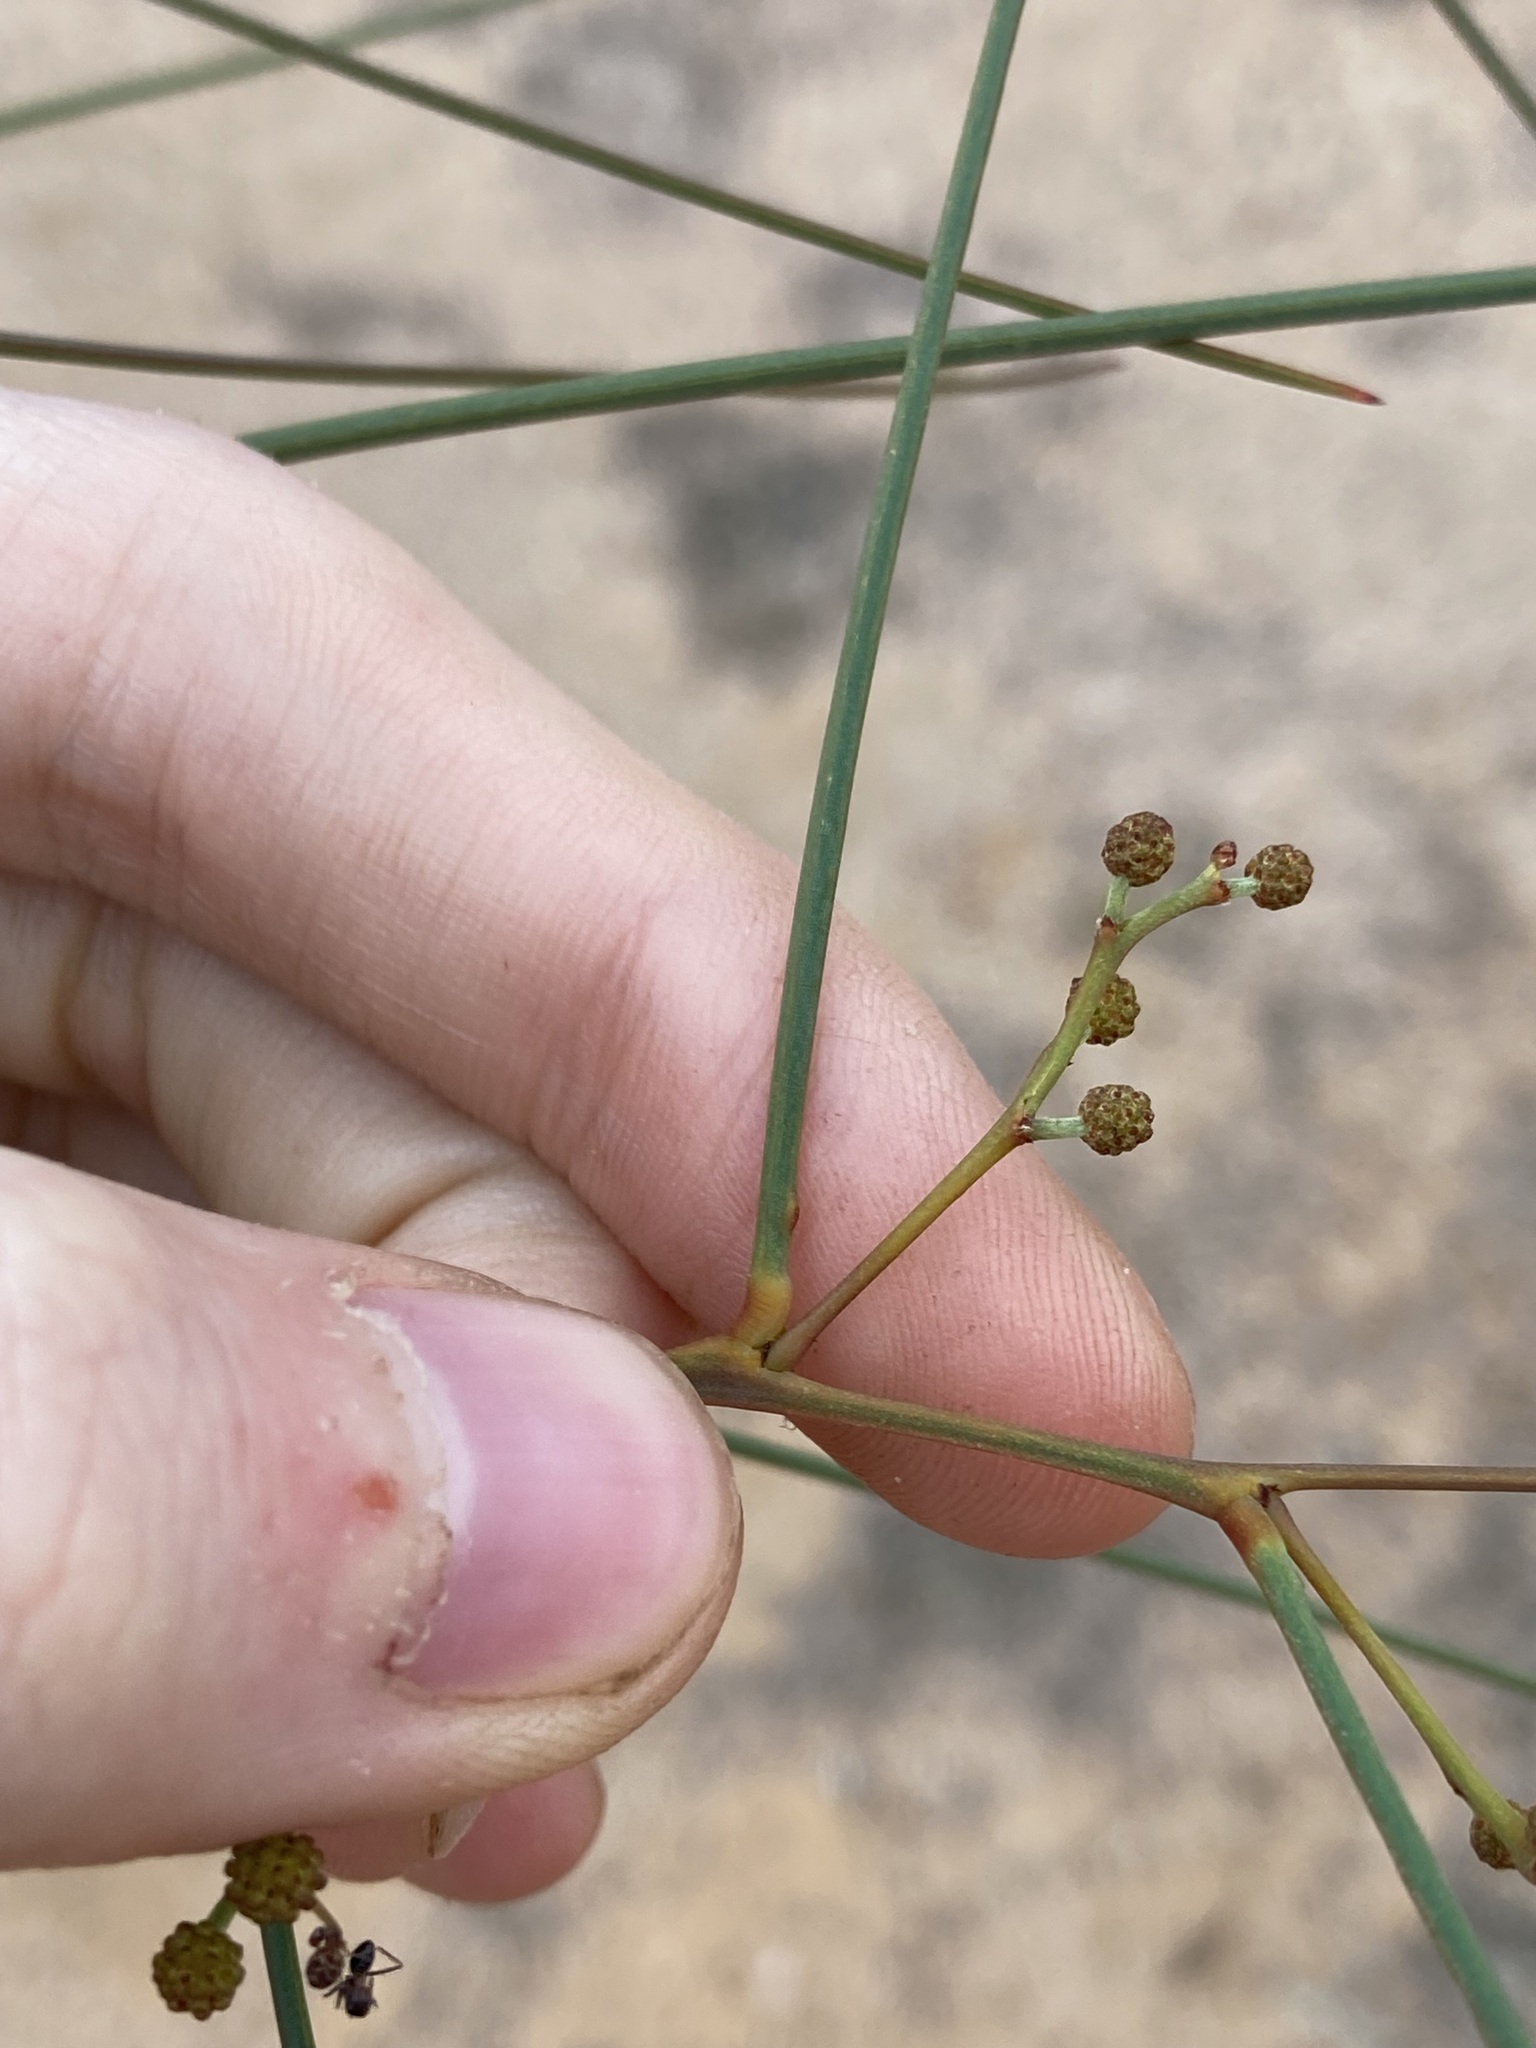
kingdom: Plantae
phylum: Tracheophyta
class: Magnoliopsida
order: Fabales
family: Fabaceae
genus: Acacia
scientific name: Acacia chamaeleon
